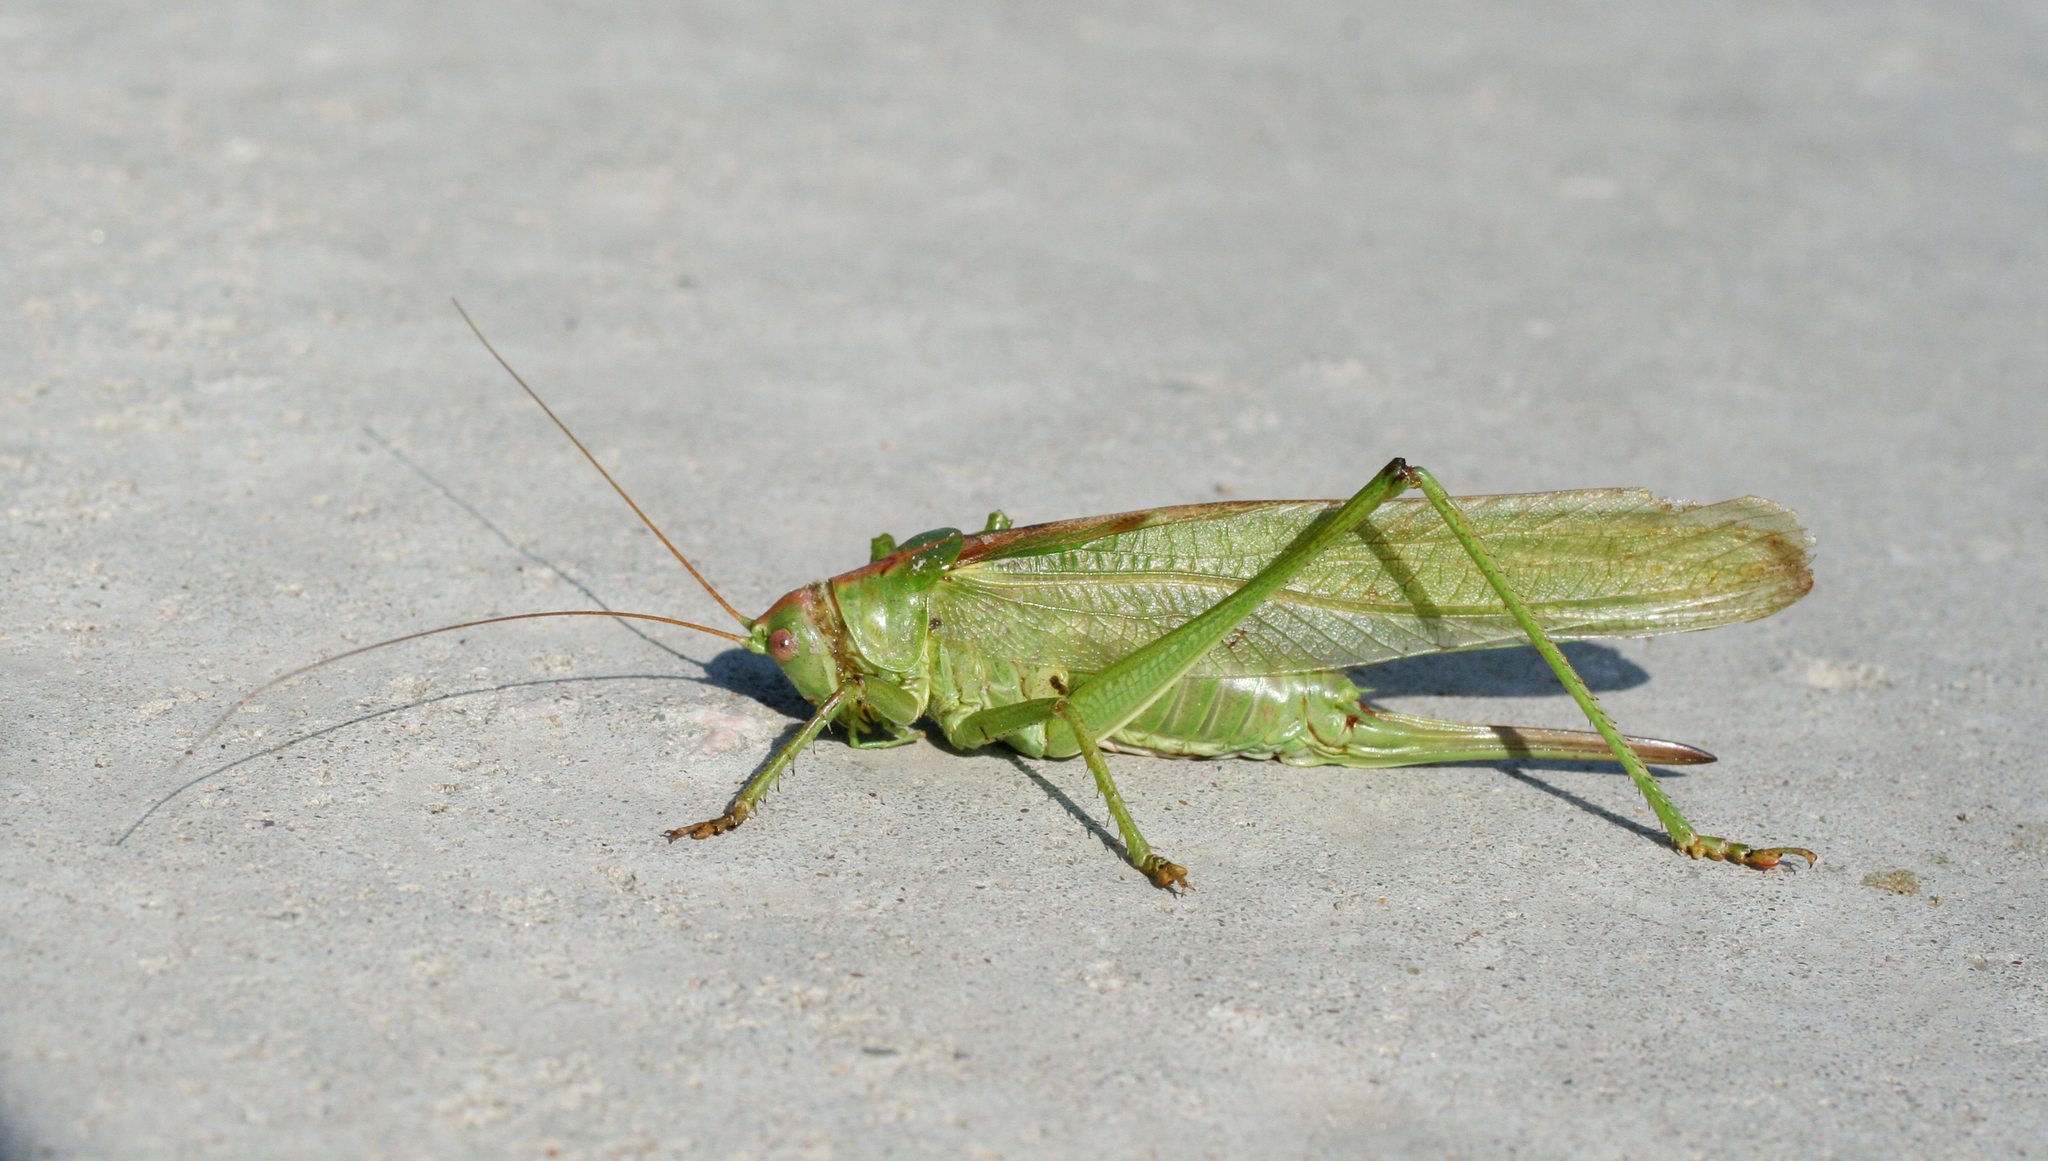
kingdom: Animalia
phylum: Arthropoda
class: Insecta
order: Orthoptera
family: Tettigoniidae
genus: Tettigonia
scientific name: Tettigonia viridissima
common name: Great green bush-cricket
